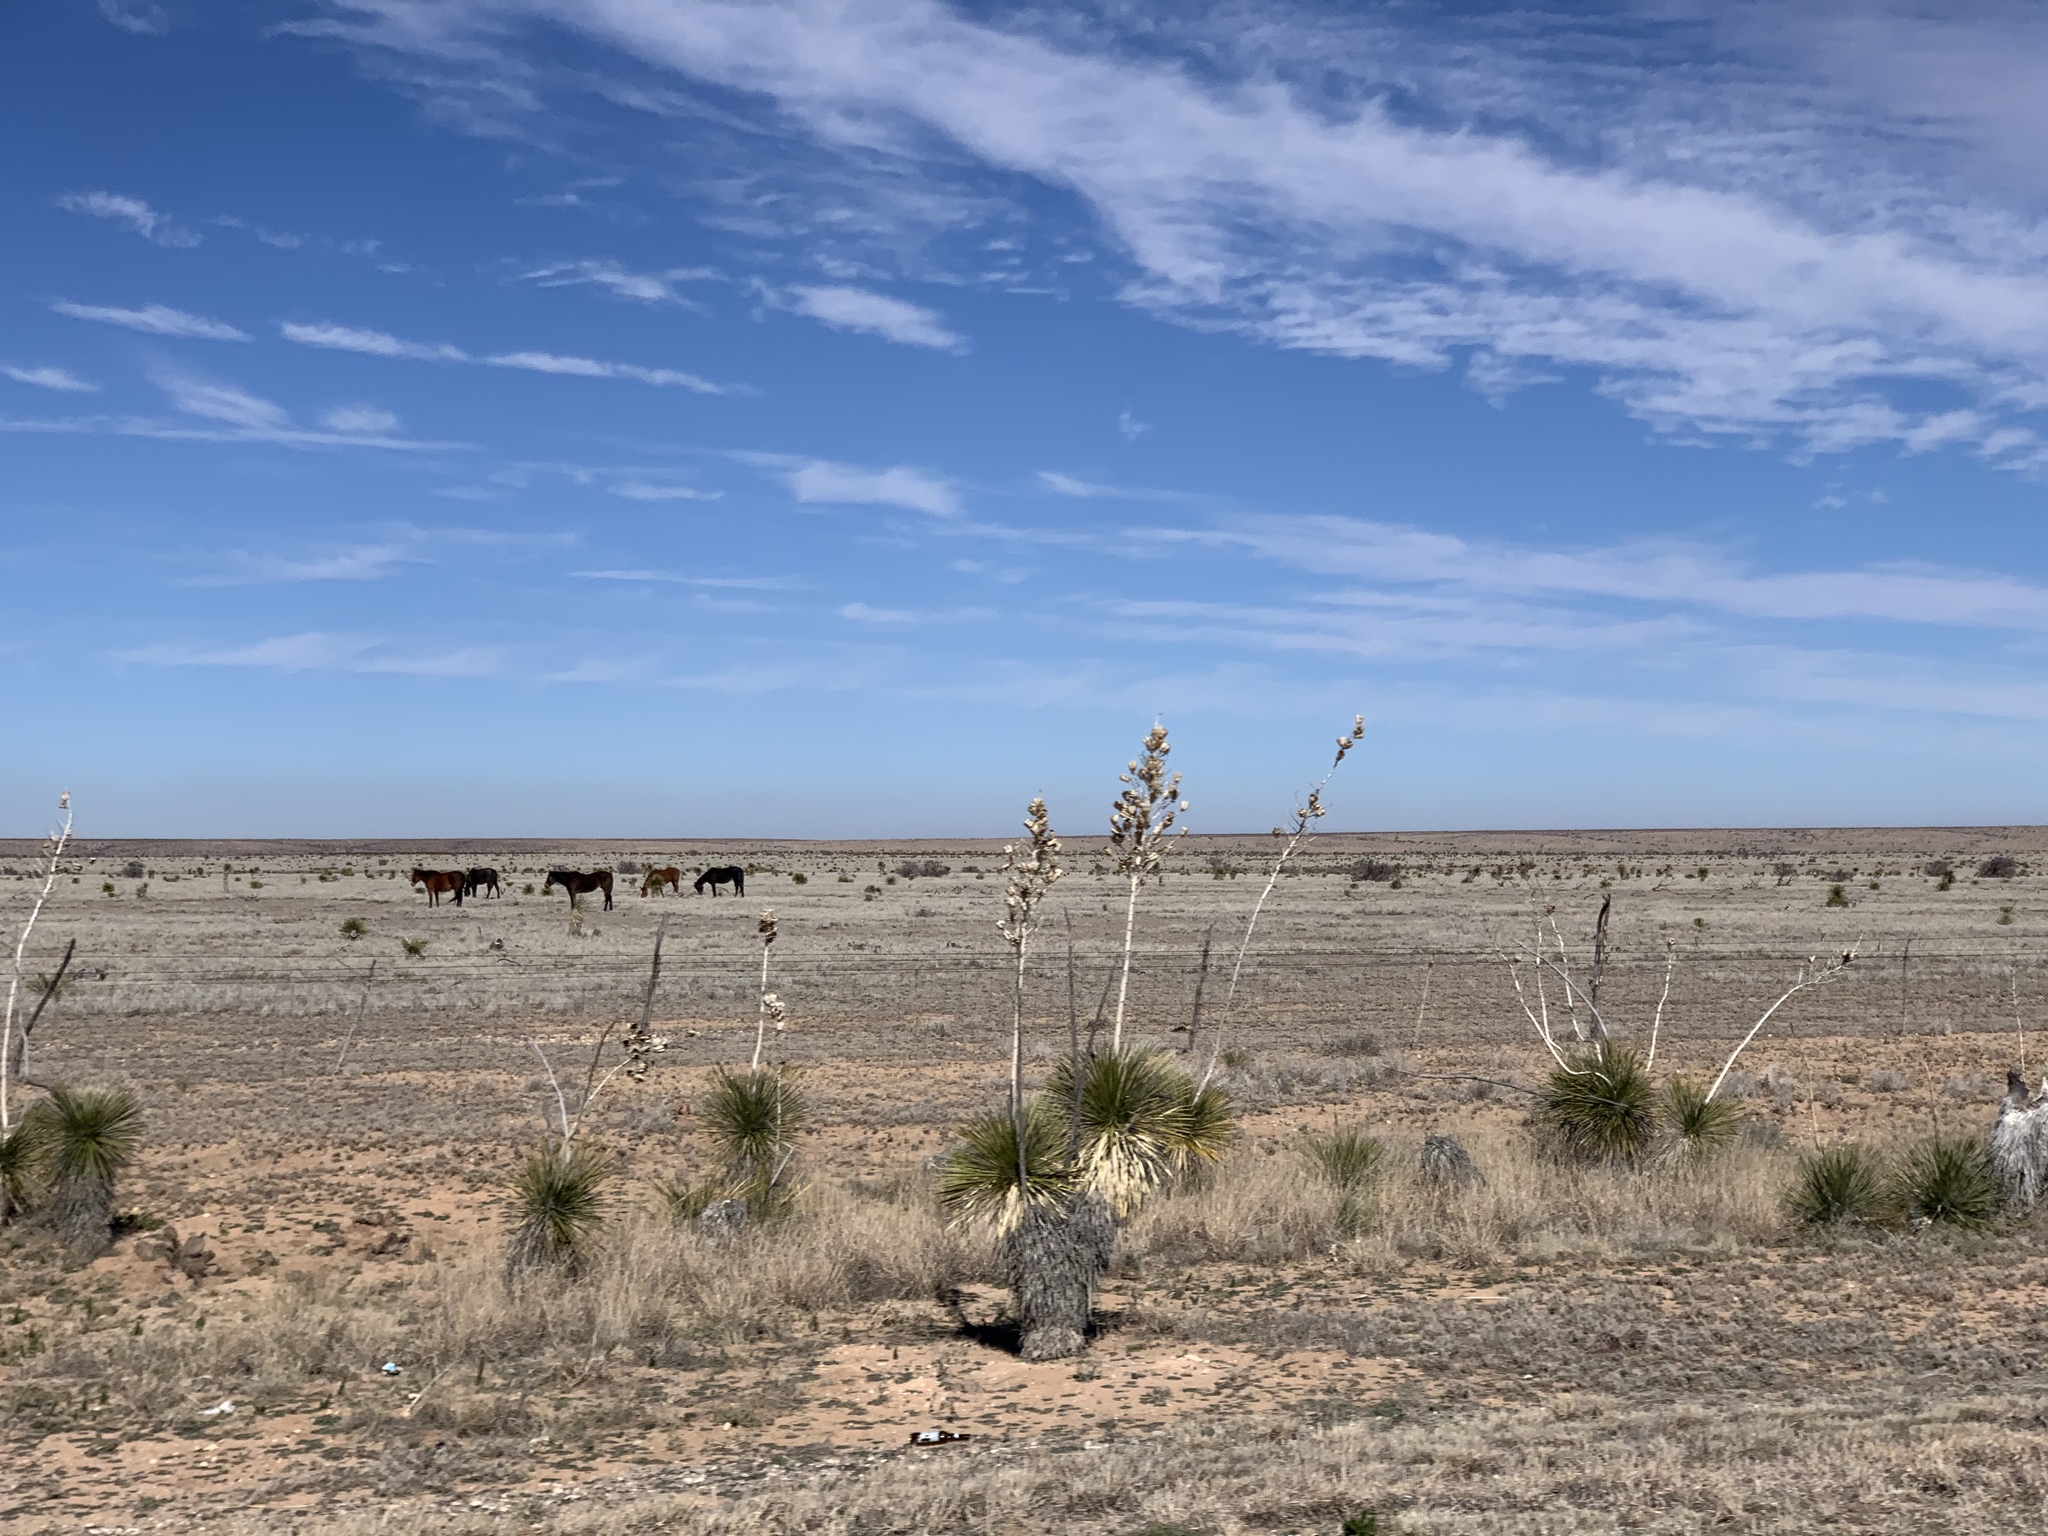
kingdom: Plantae
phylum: Tracheophyta
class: Liliopsida
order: Asparagales
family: Asparagaceae
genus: Yucca
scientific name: Yucca elata
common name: Palmella
